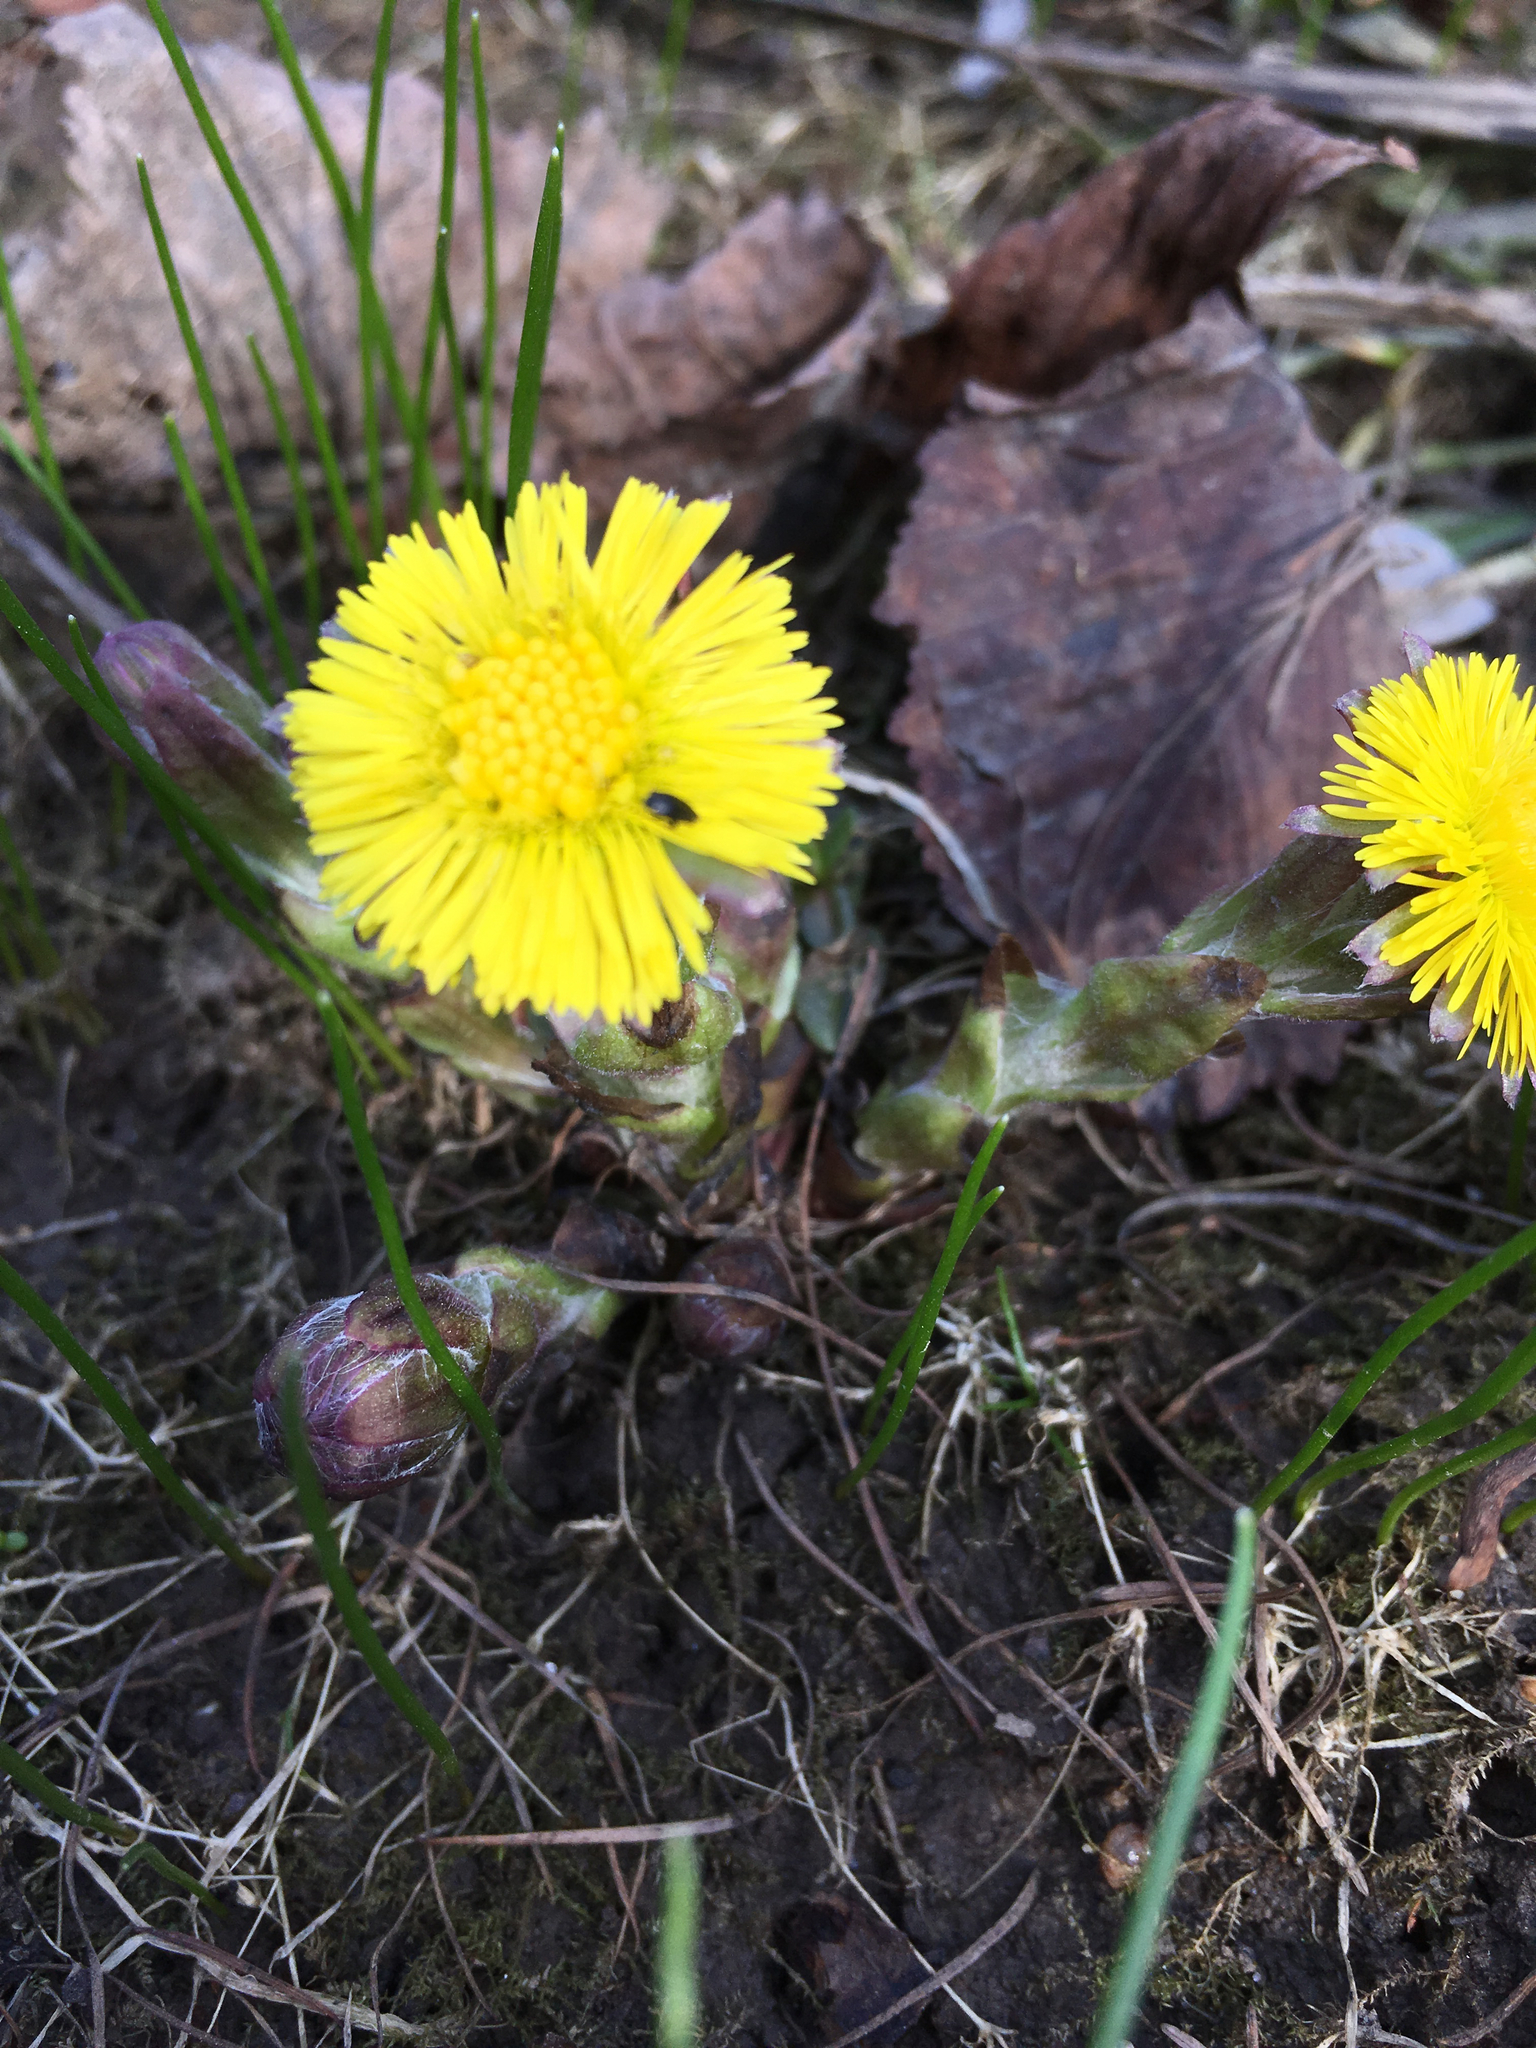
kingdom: Plantae
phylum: Tracheophyta
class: Magnoliopsida
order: Asterales
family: Asteraceae
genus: Tussilago
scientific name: Tussilago farfara
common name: Coltsfoot
